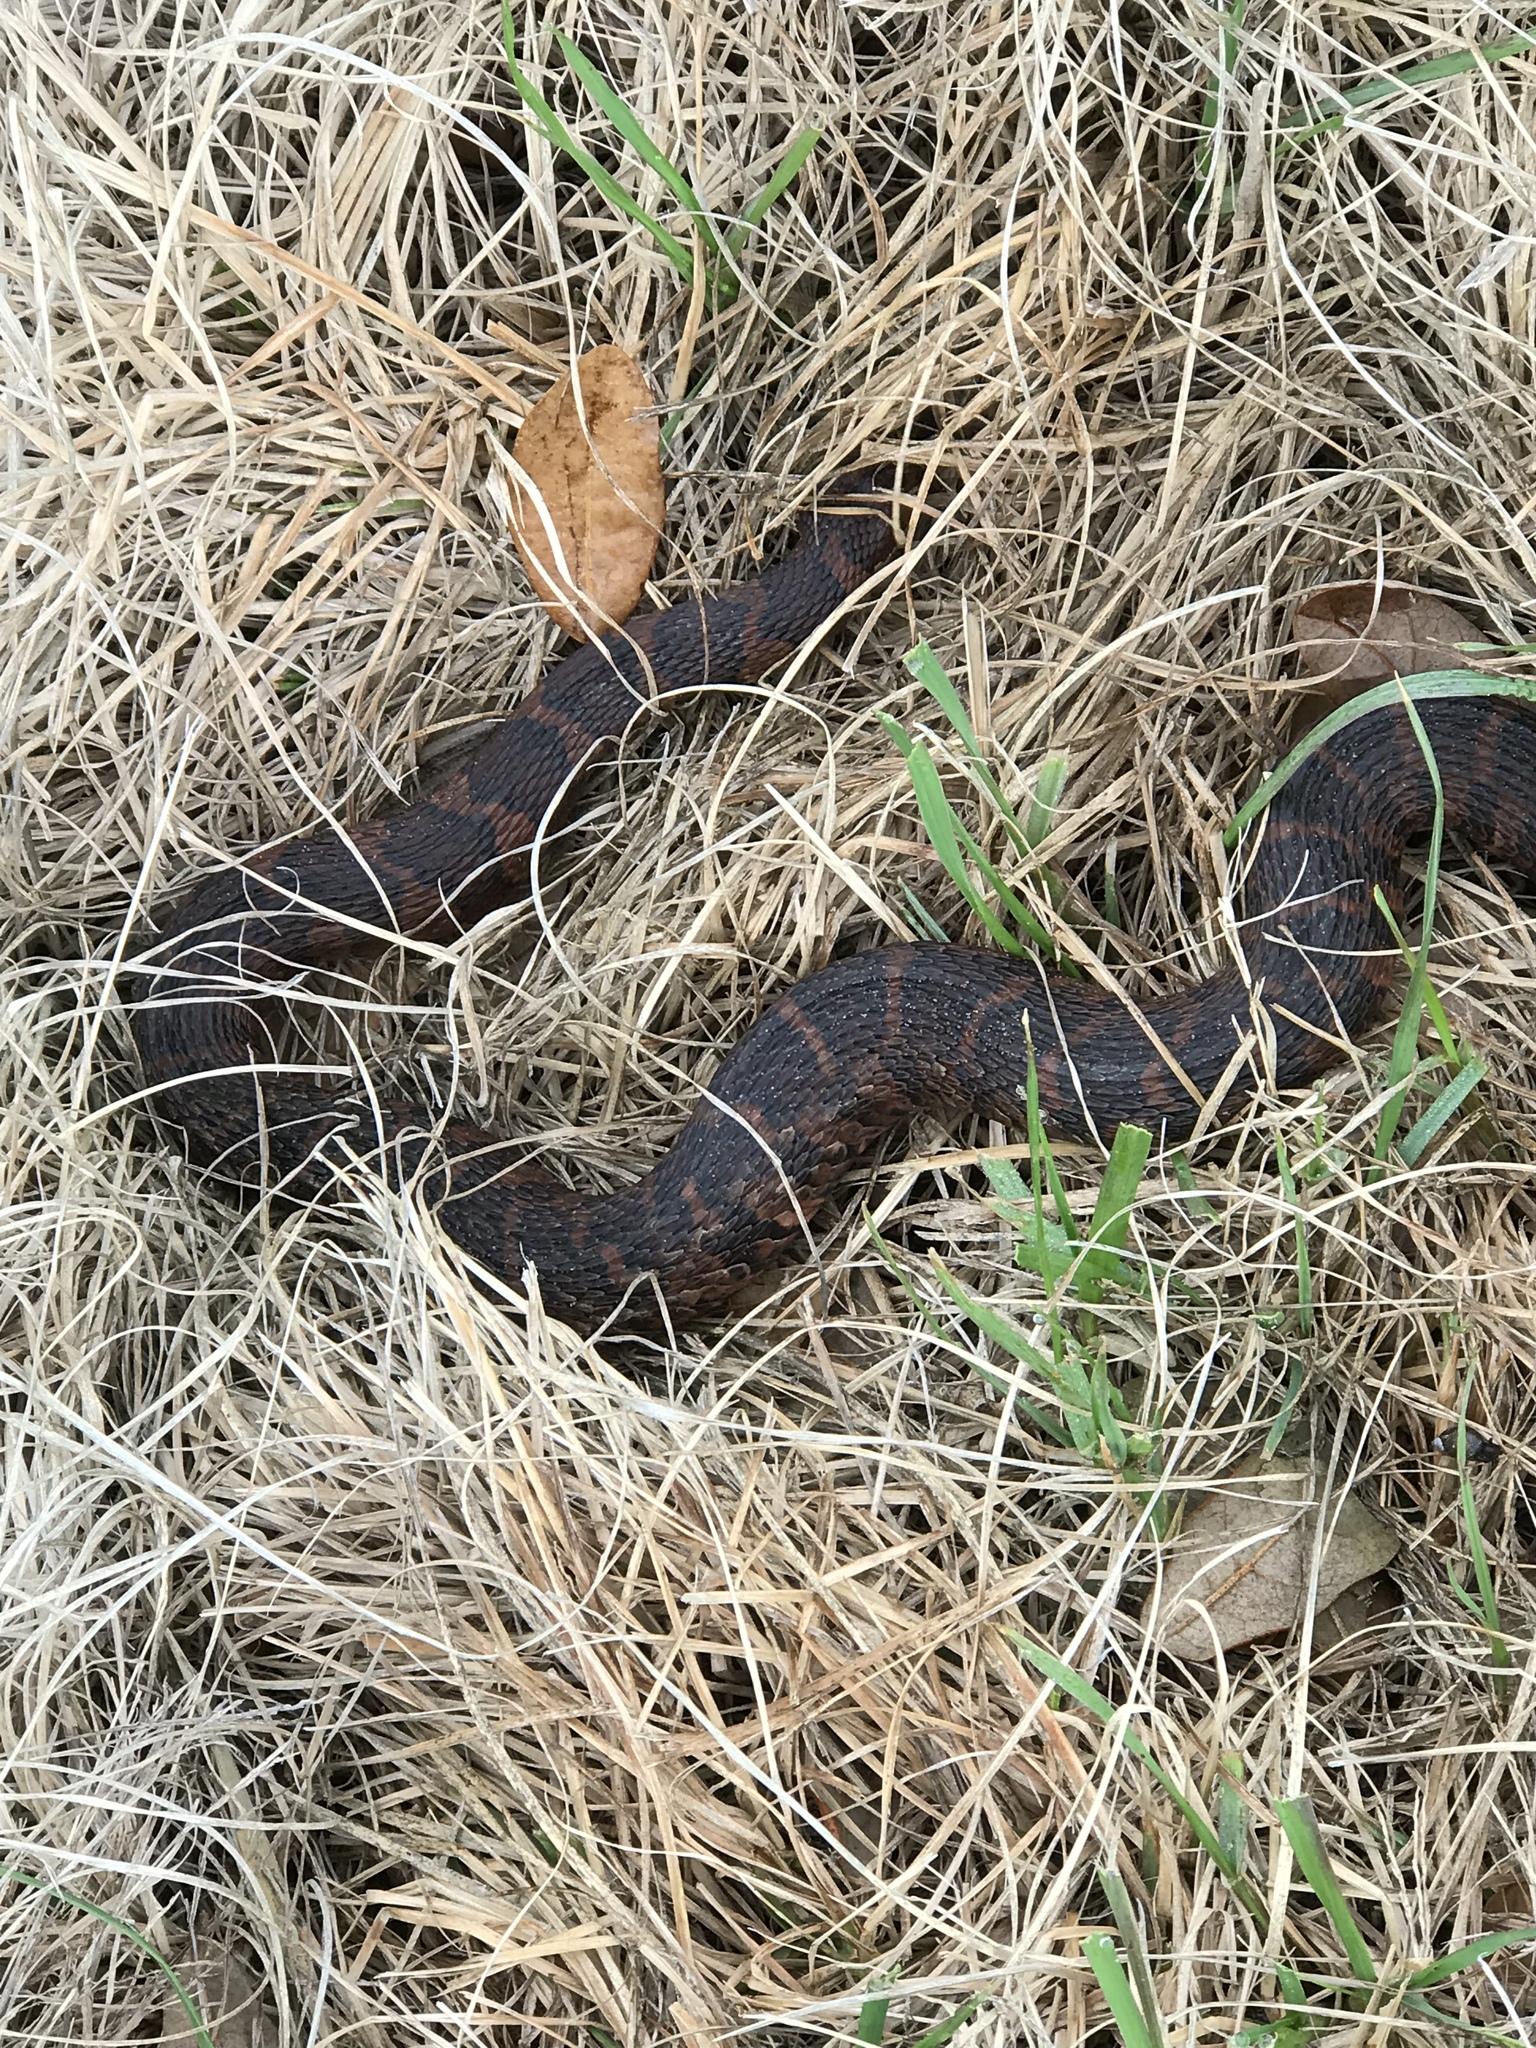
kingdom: Animalia
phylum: Chordata
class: Squamata
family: Colubridae
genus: Nerodia
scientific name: Nerodia sipedon
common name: Northern water snake
